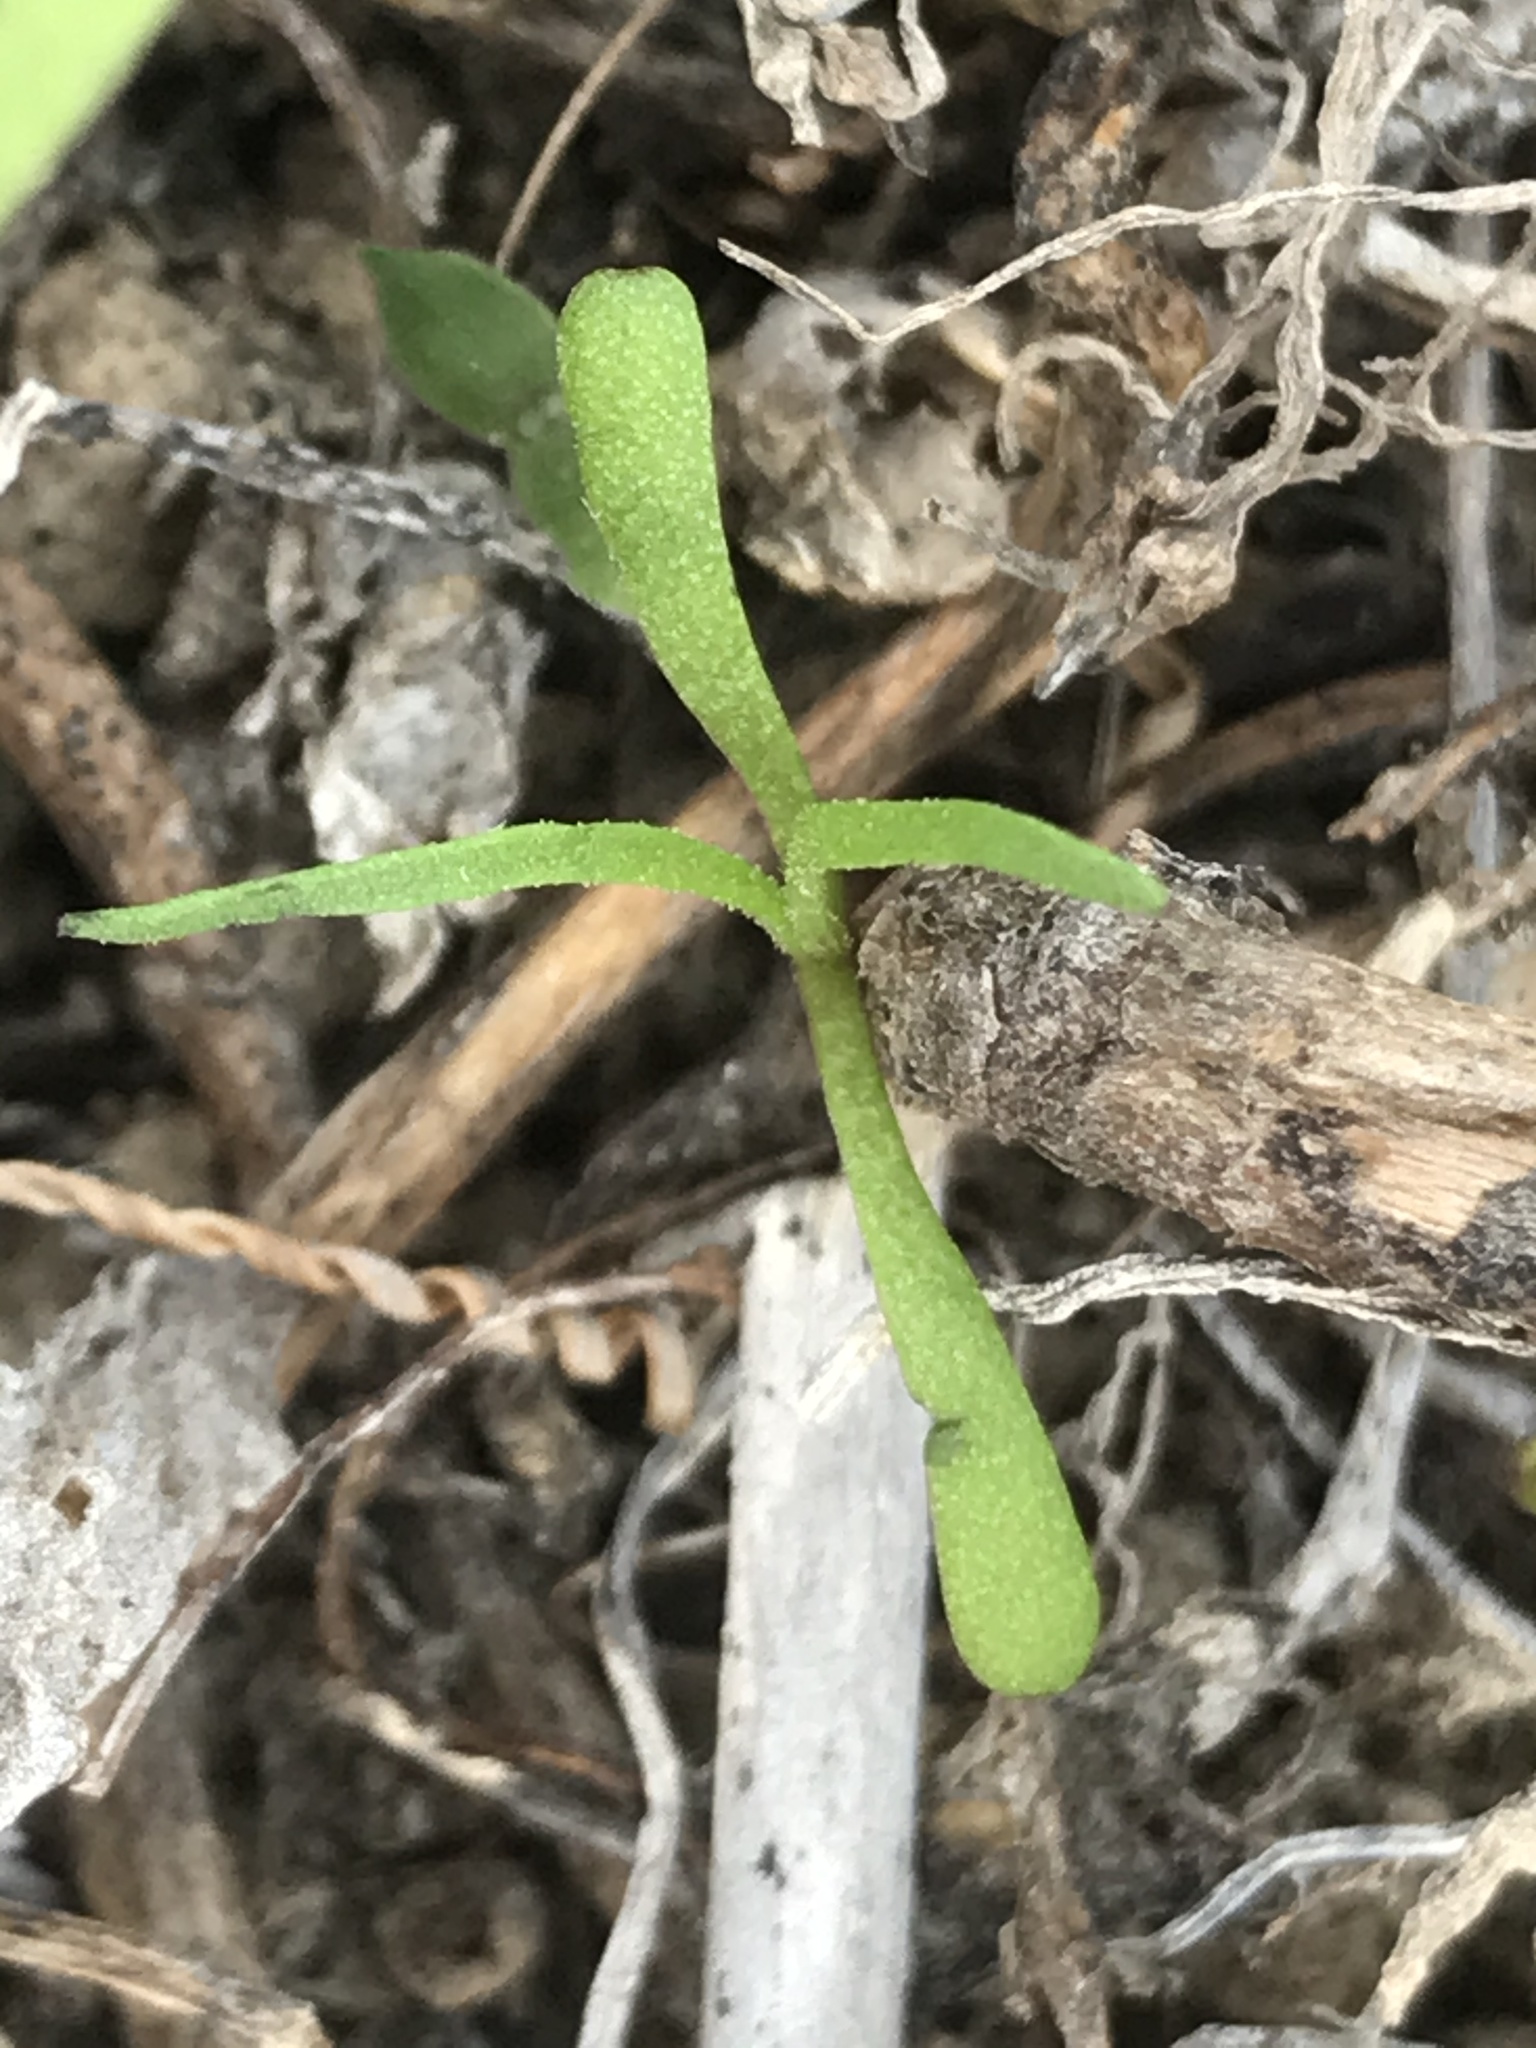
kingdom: Plantae
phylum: Tracheophyta
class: Magnoliopsida
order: Asterales
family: Asteraceae
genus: Amblyopappus
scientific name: Amblyopappus pusillus
